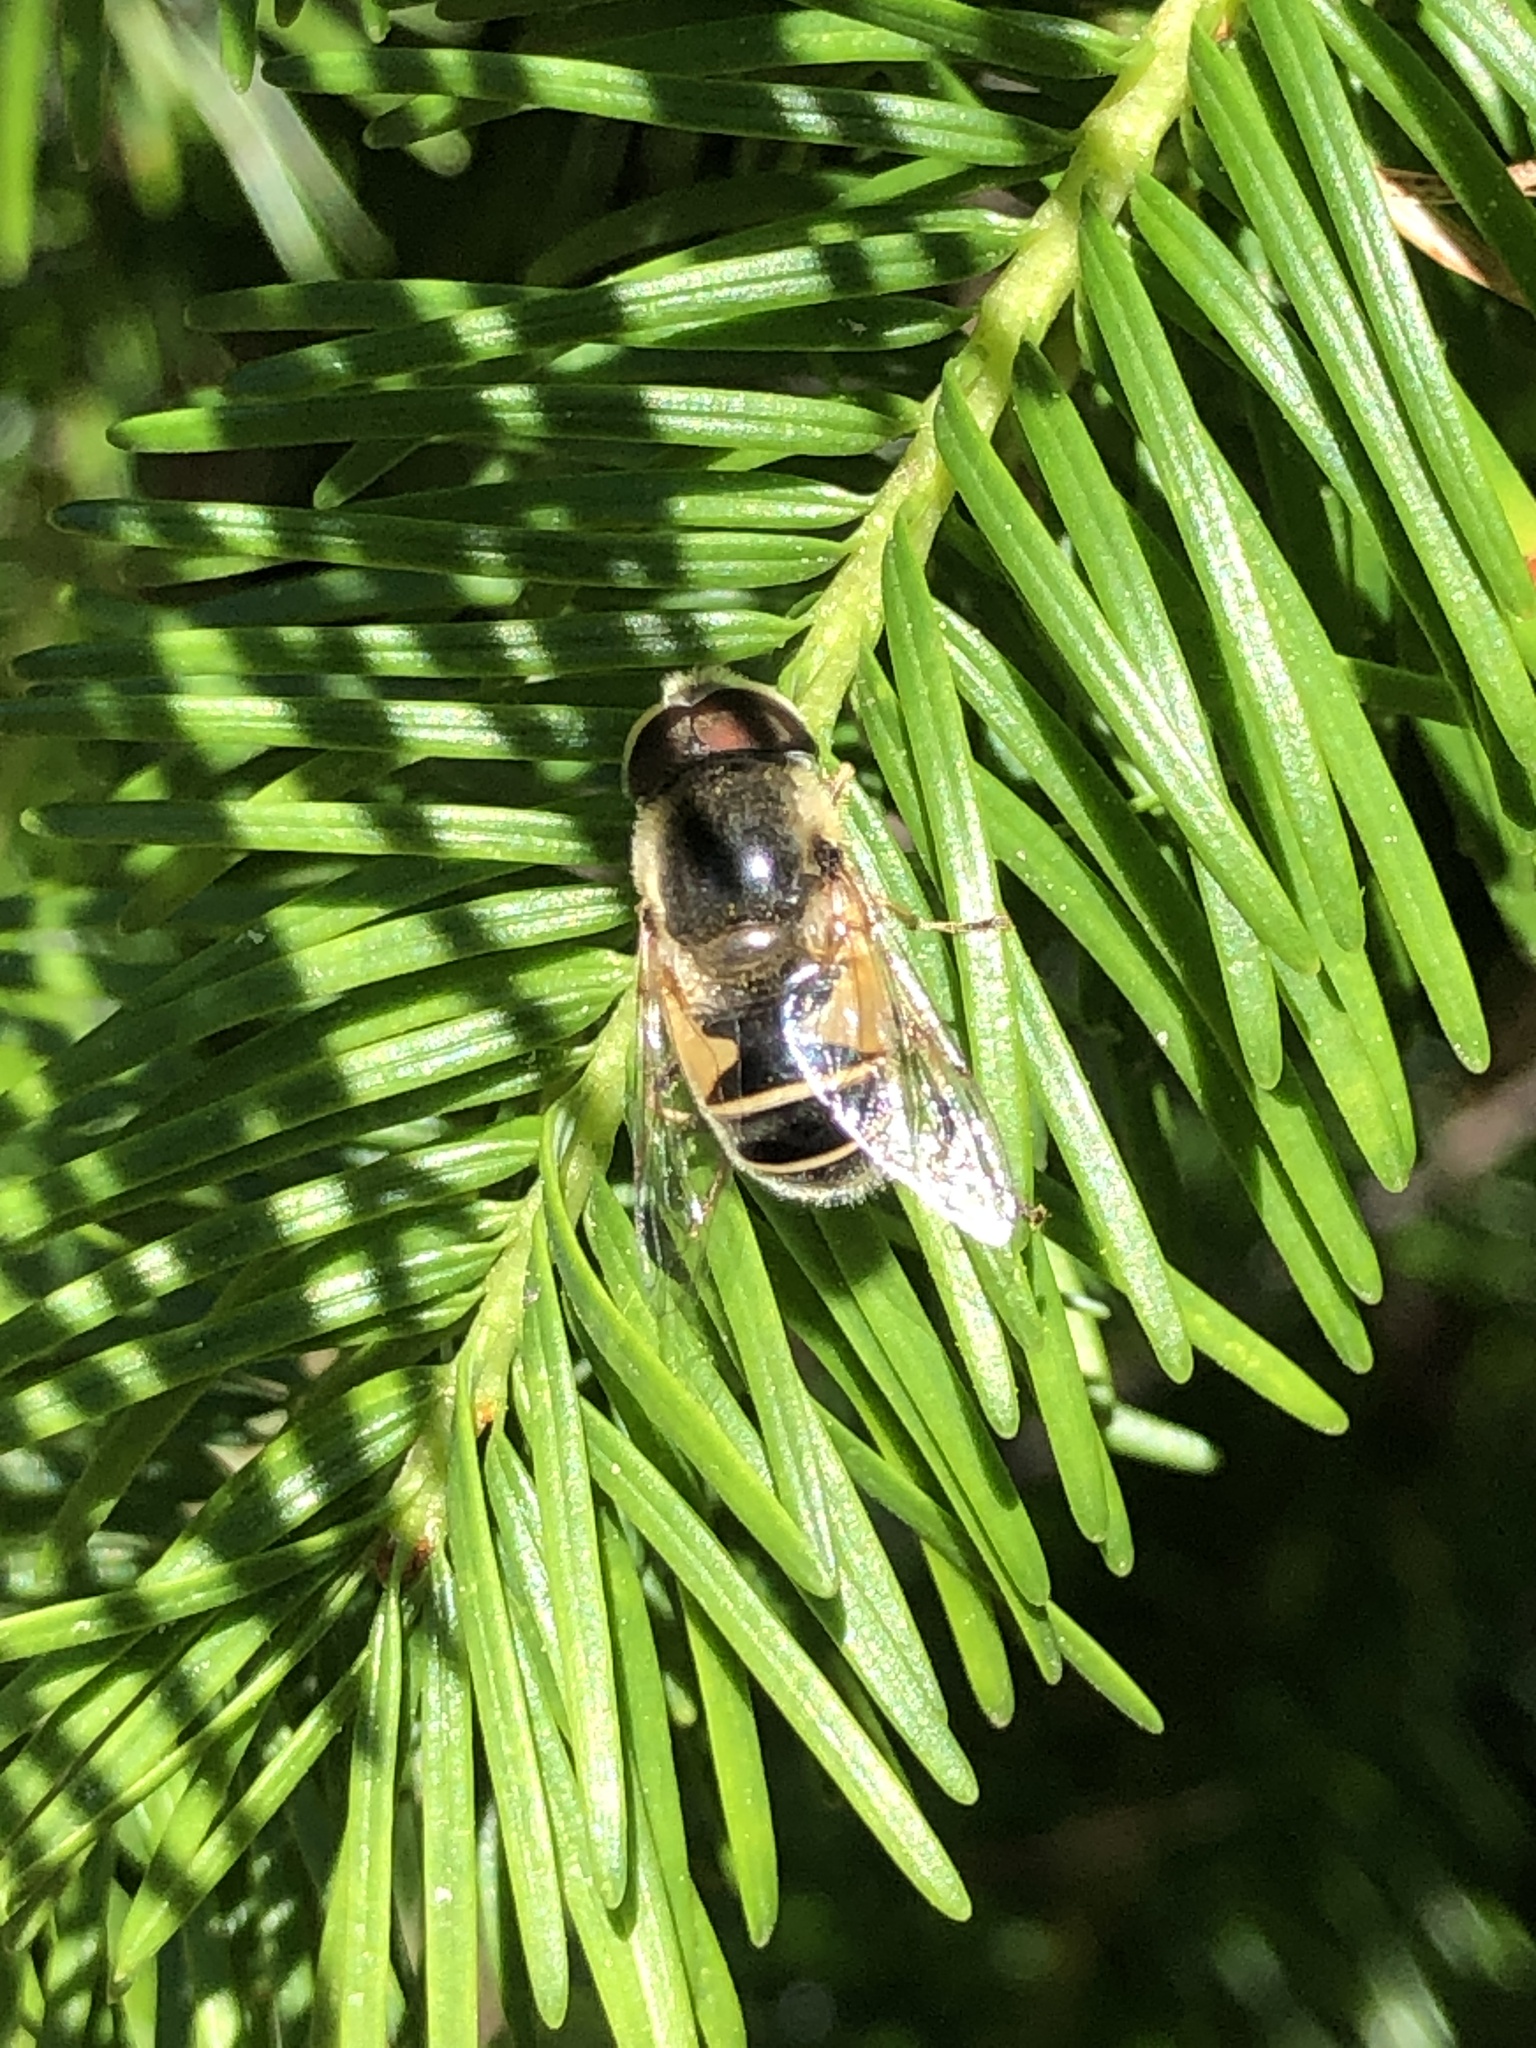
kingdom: Animalia
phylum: Arthropoda
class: Insecta
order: Diptera
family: Syrphidae
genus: Eristalis
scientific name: Eristalis hirta
